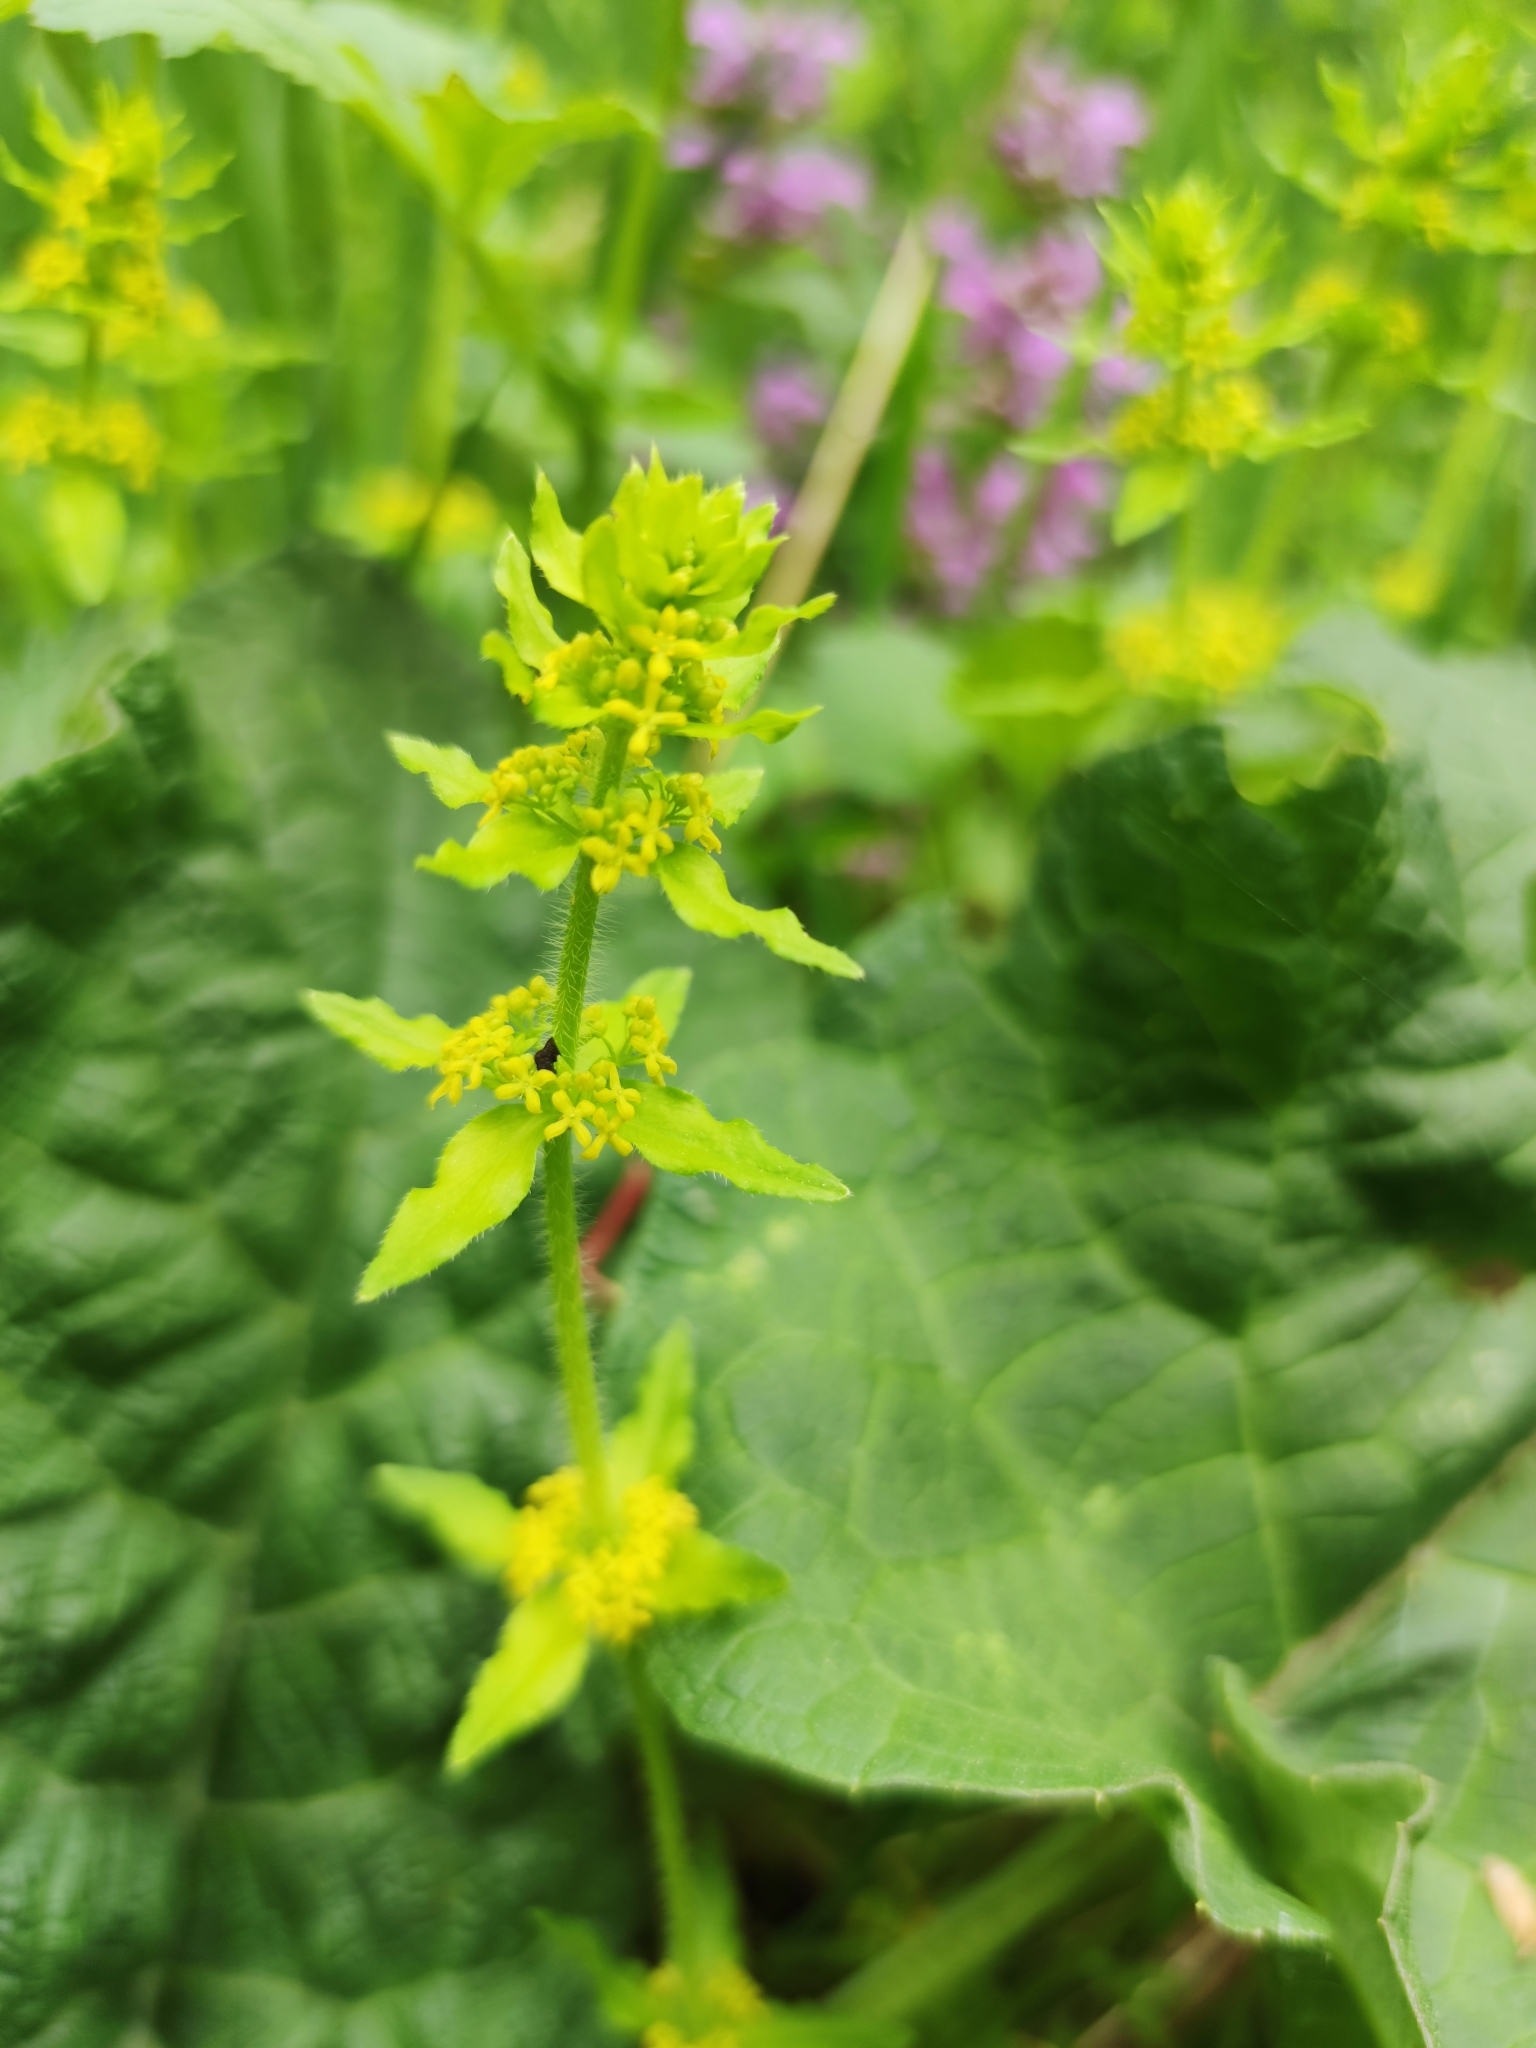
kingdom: Plantae
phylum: Tracheophyta
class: Magnoliopsida
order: Gentianales
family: Rubiaceae
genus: Cruciata
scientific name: Cruciata laevipes
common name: Crosswort
